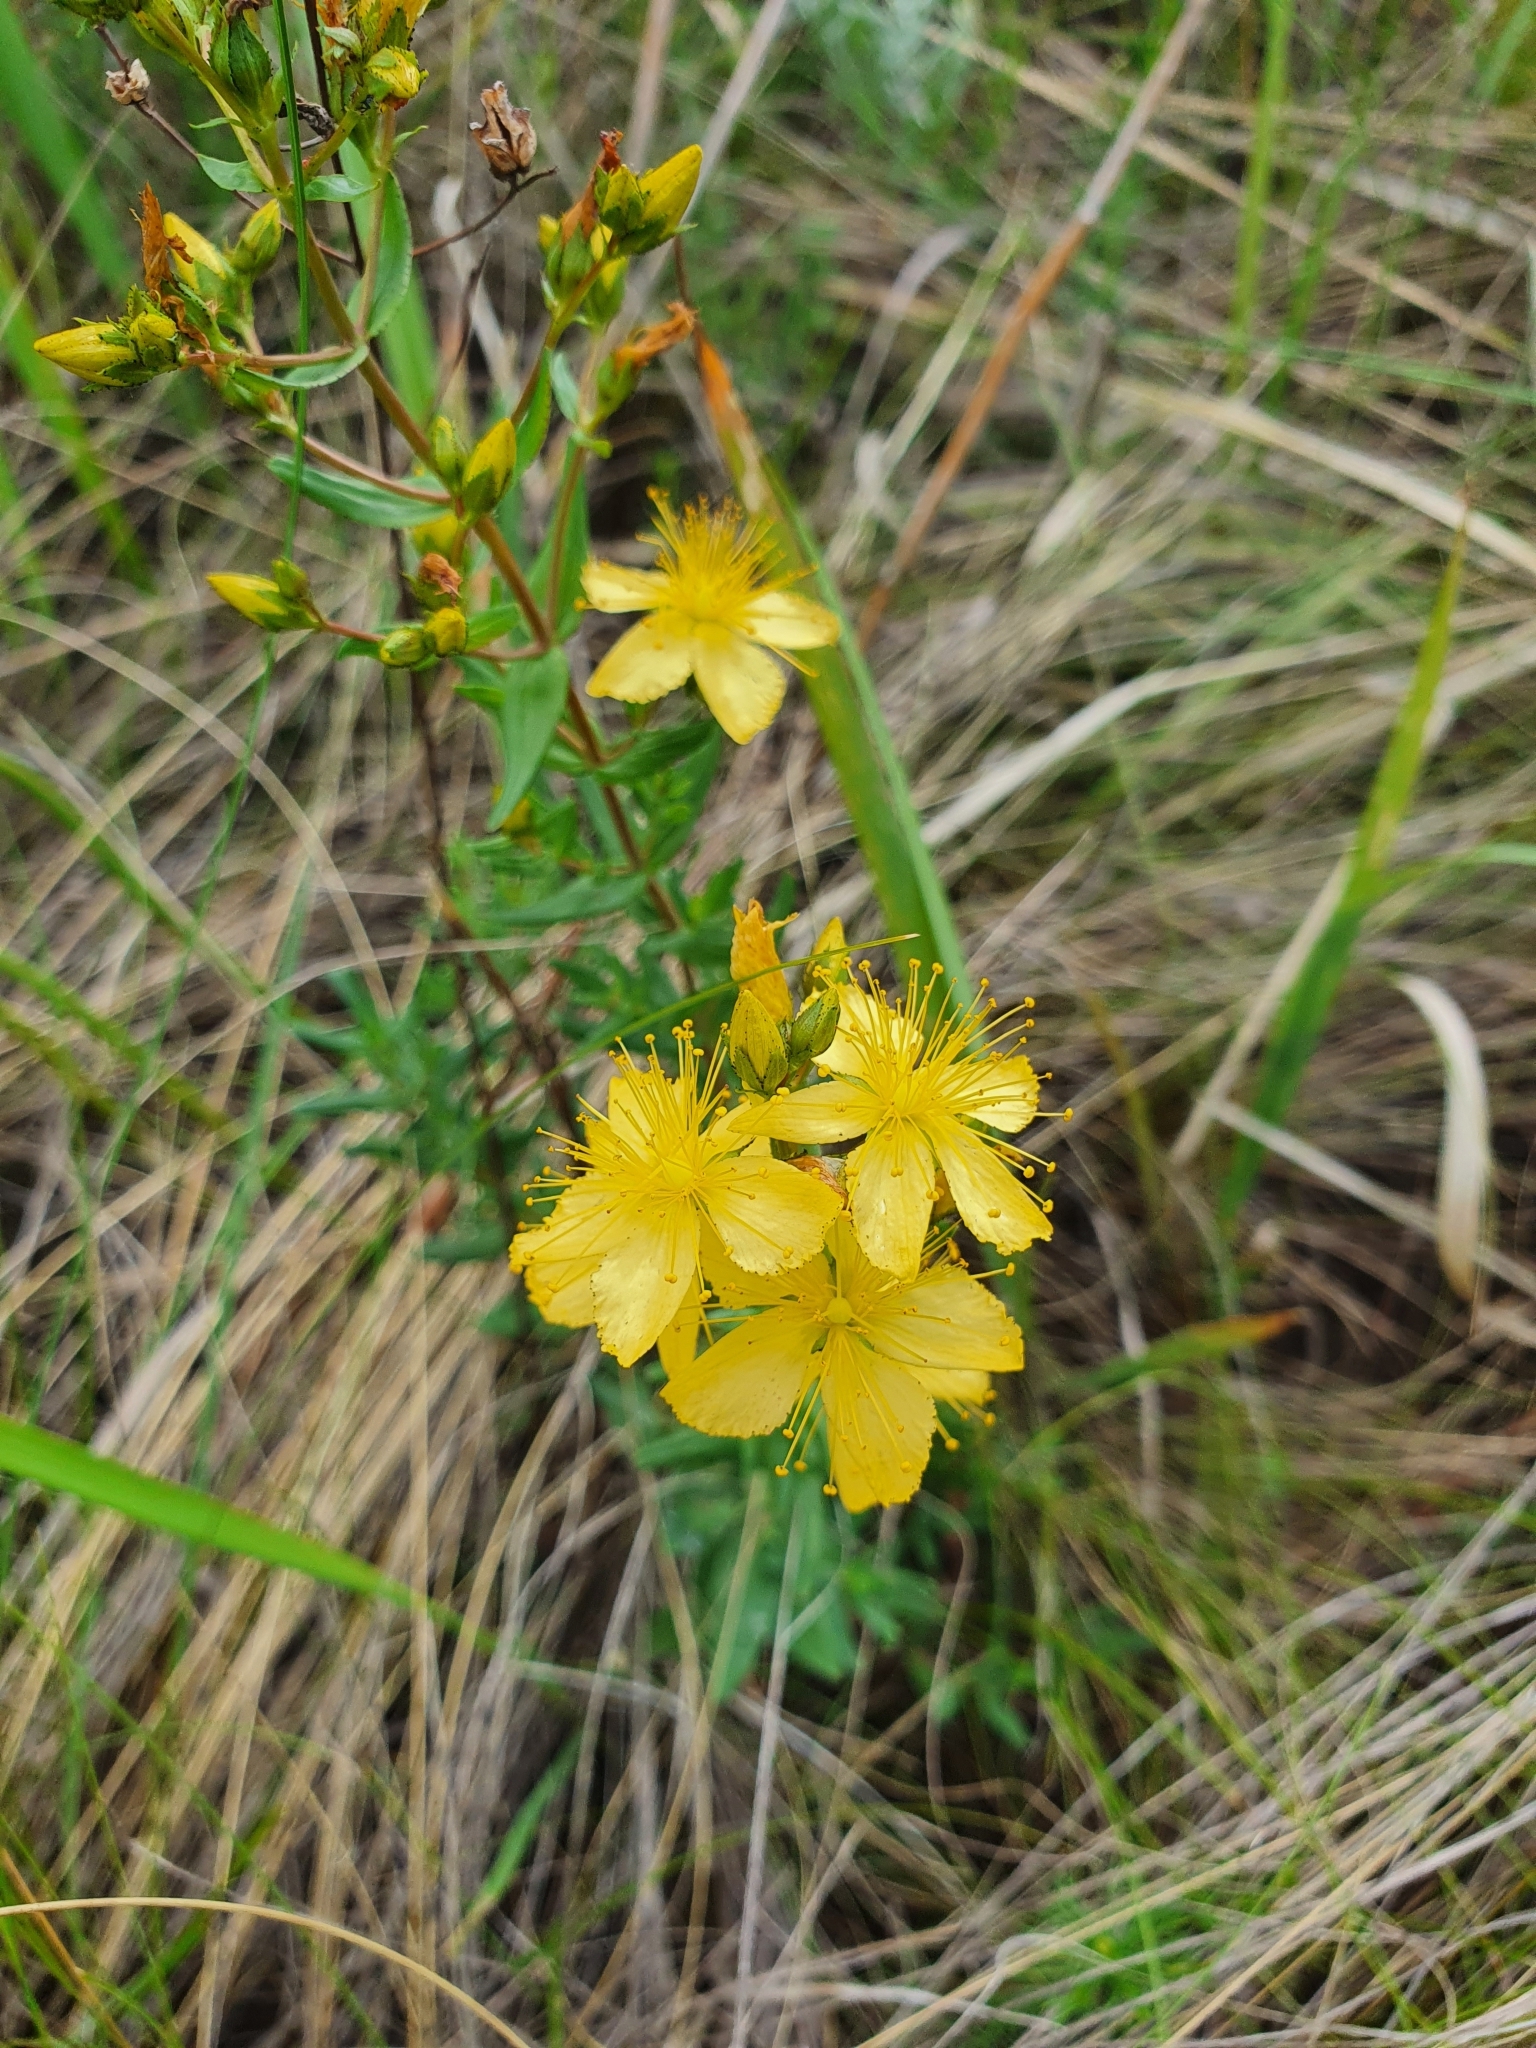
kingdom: Plantae
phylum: Tracheophyta
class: Magnoliopsida
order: Malpighiales
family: Hypericaceae
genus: Hypericum
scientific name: Hypericum elegans
